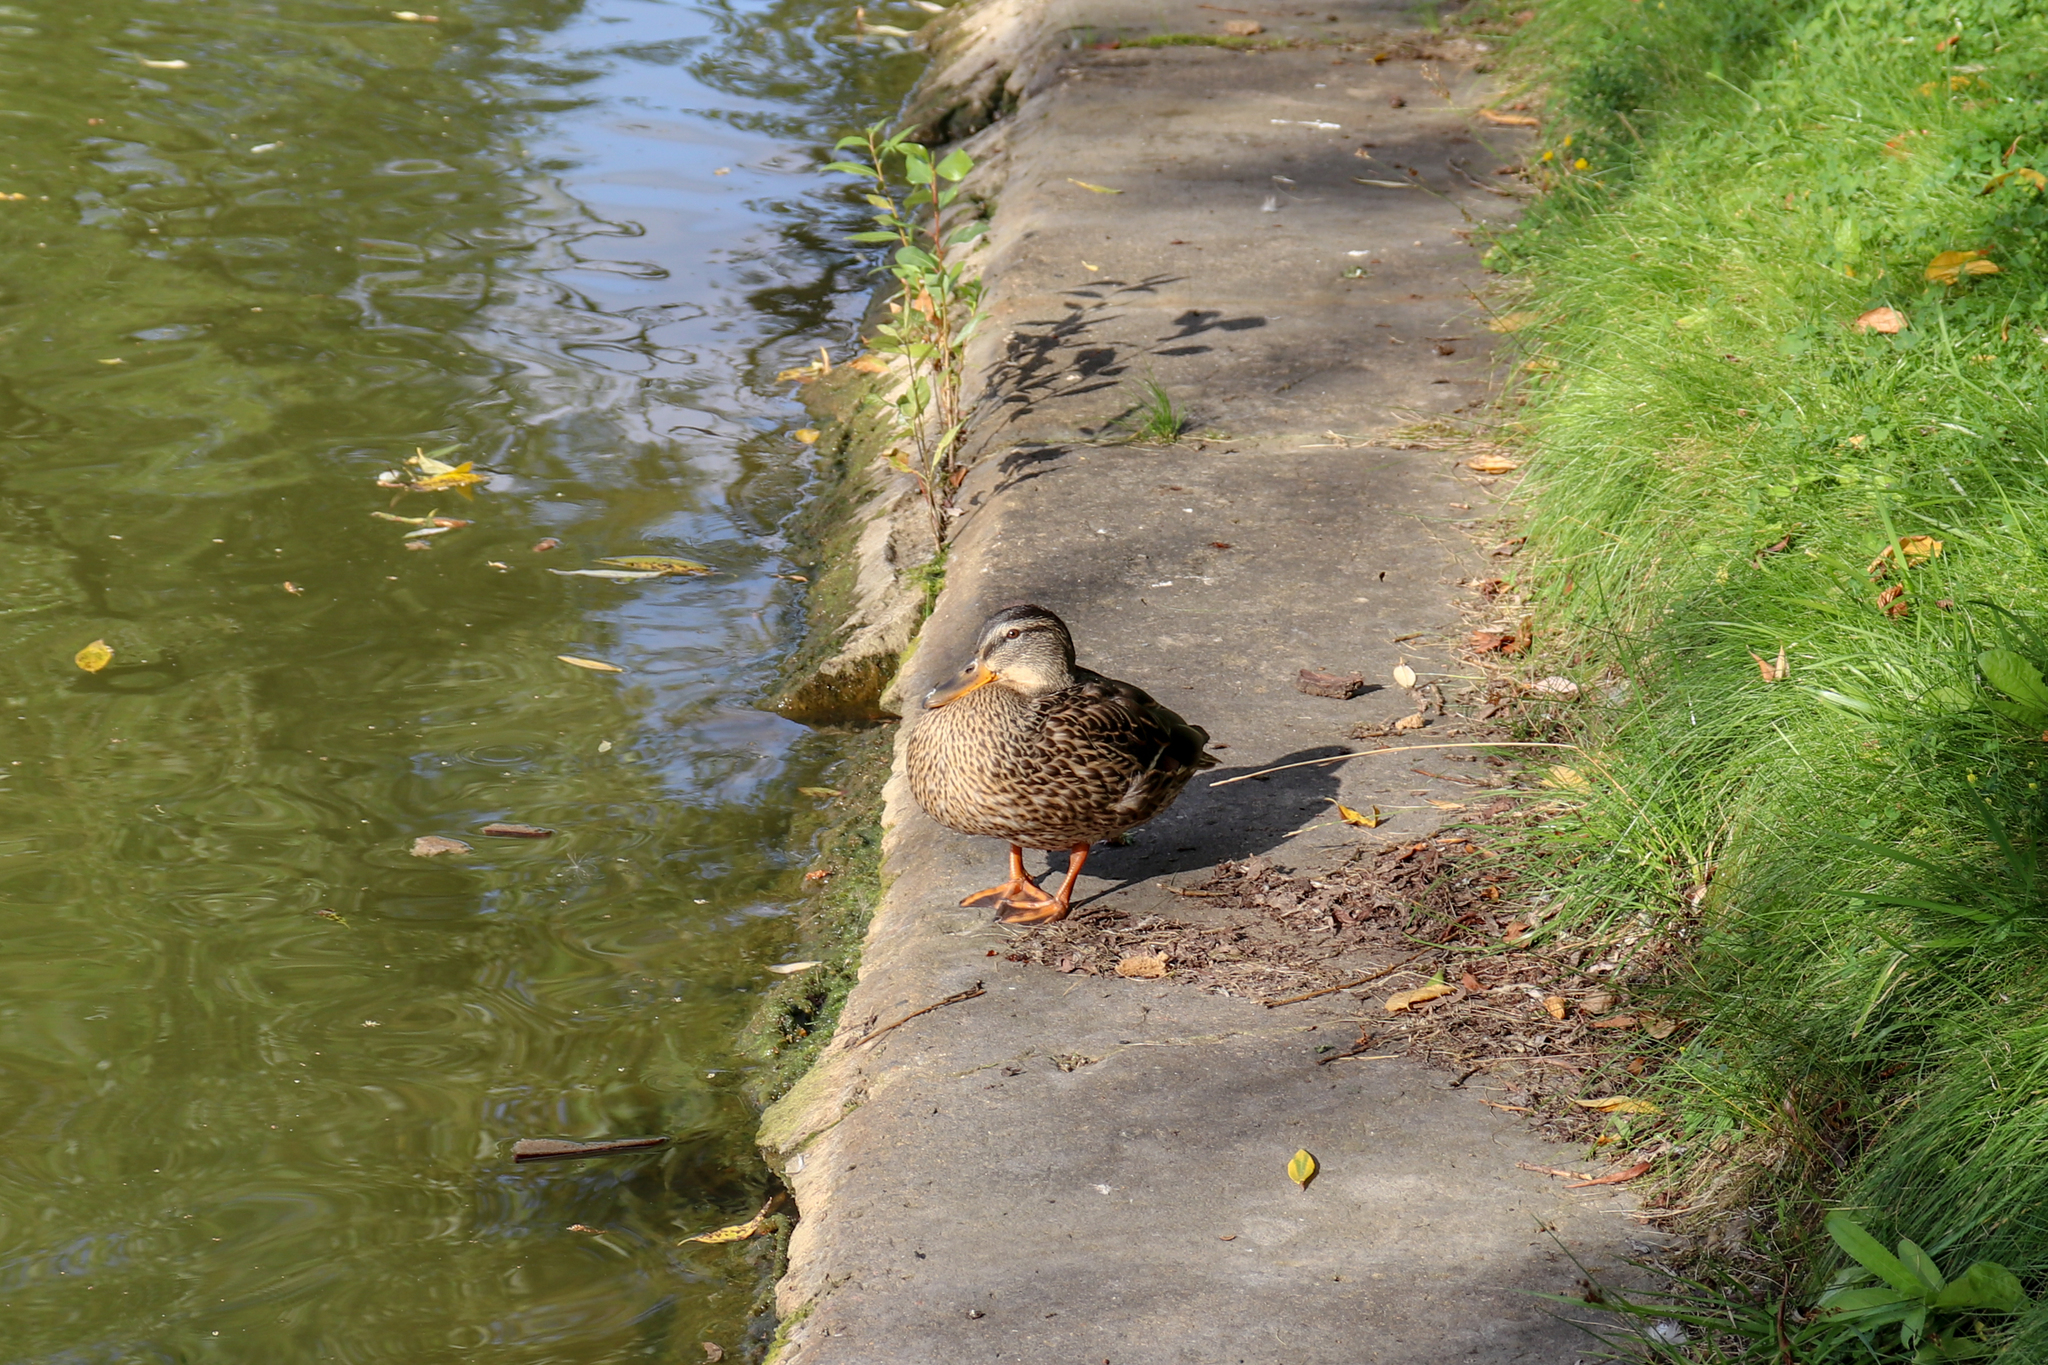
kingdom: Animalia
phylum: Chordata
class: Aves
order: Anseriformes
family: Anatidae
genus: Anas
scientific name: Anas platyrhynchos
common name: Mallard
